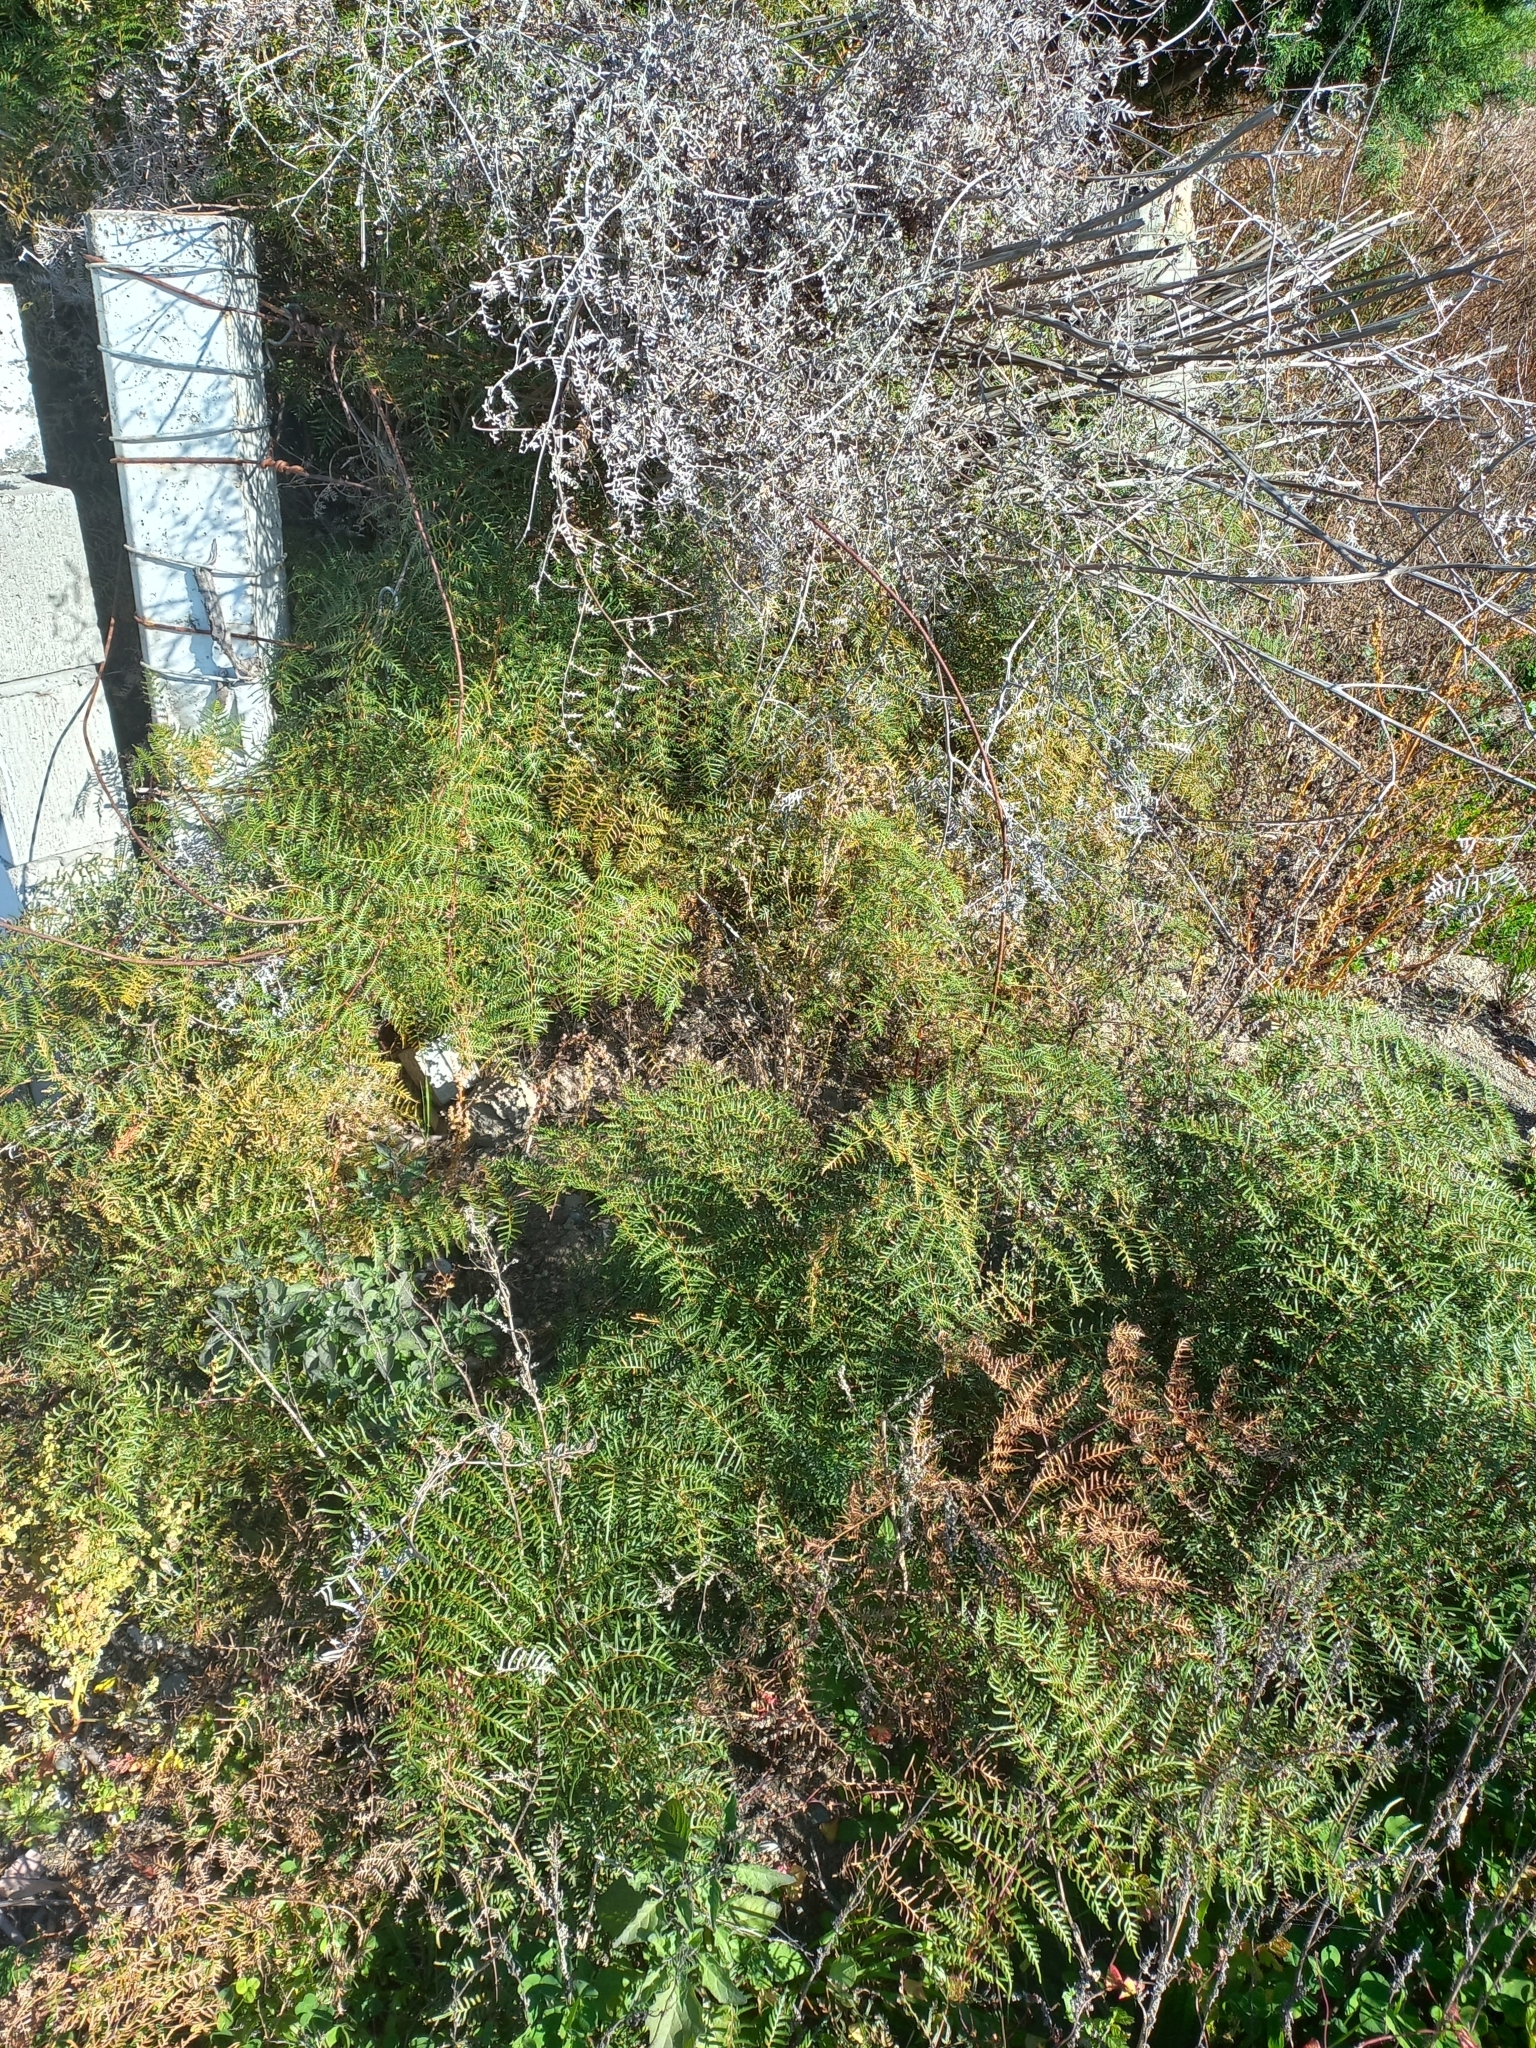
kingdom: Plantae
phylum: Tracheophyta
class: Polypodiopsida
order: Polypodiales
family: Dennstaedtiaceae
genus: Pteridium
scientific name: Pteridium esculentum
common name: Bracken fern
